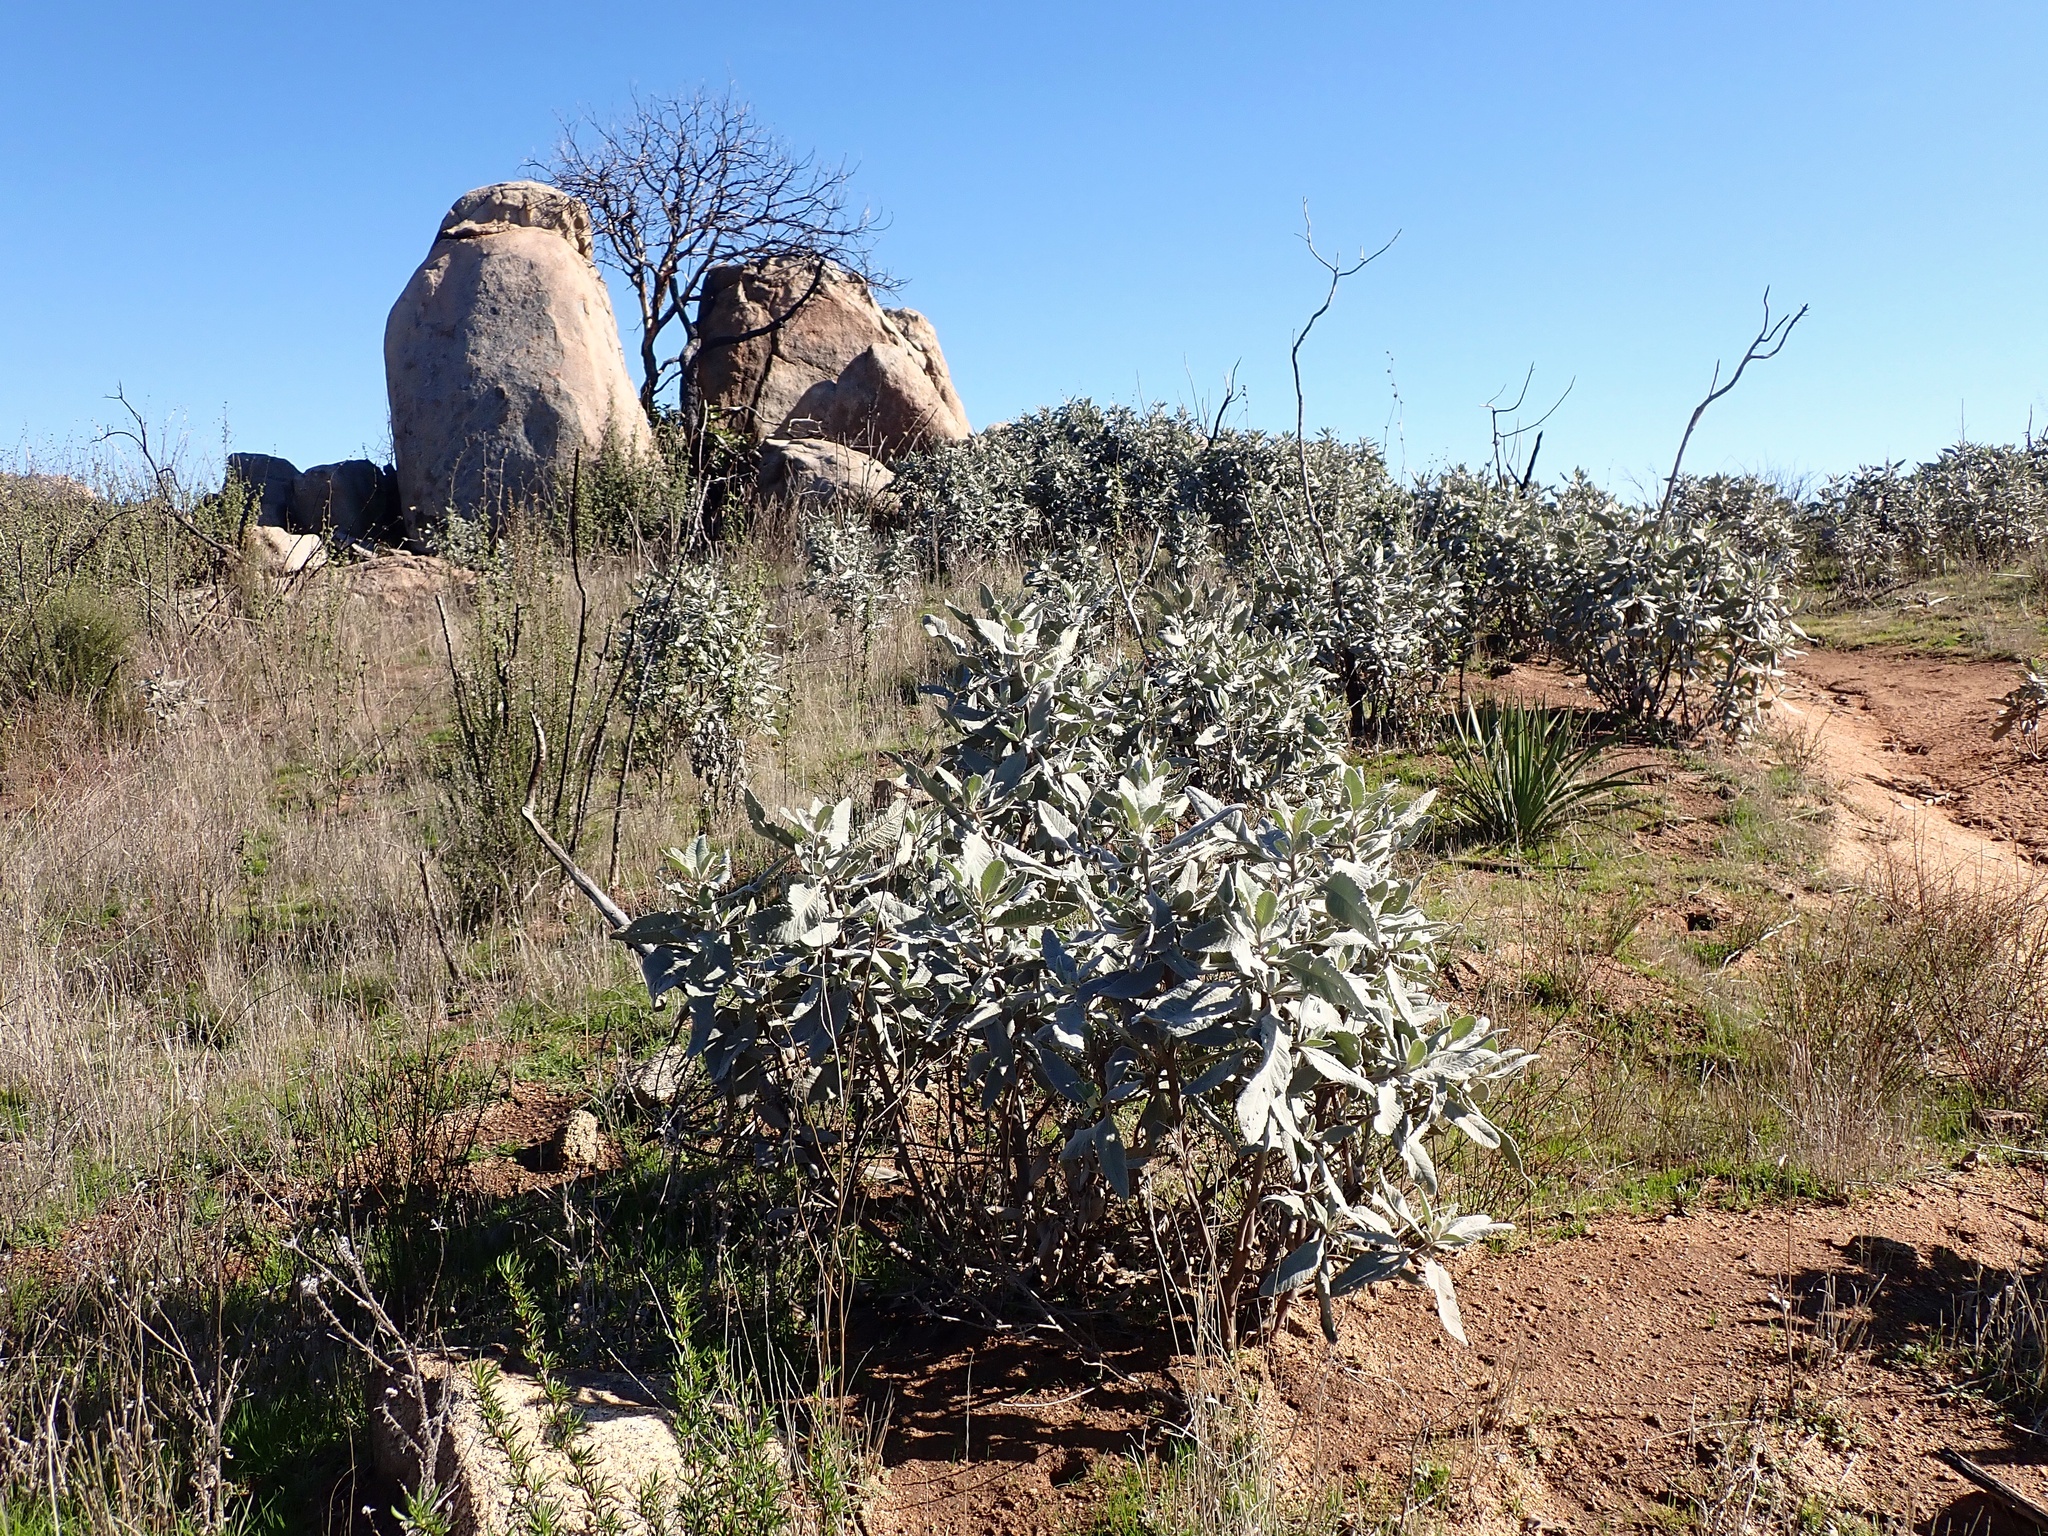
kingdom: Plantae
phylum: Tracheophyta
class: Magnoliopsida
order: Boraginales
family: Namaceae
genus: Eriodictyon
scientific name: Eriodictyon crassifolium
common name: Thick-leaf yerba-santa
